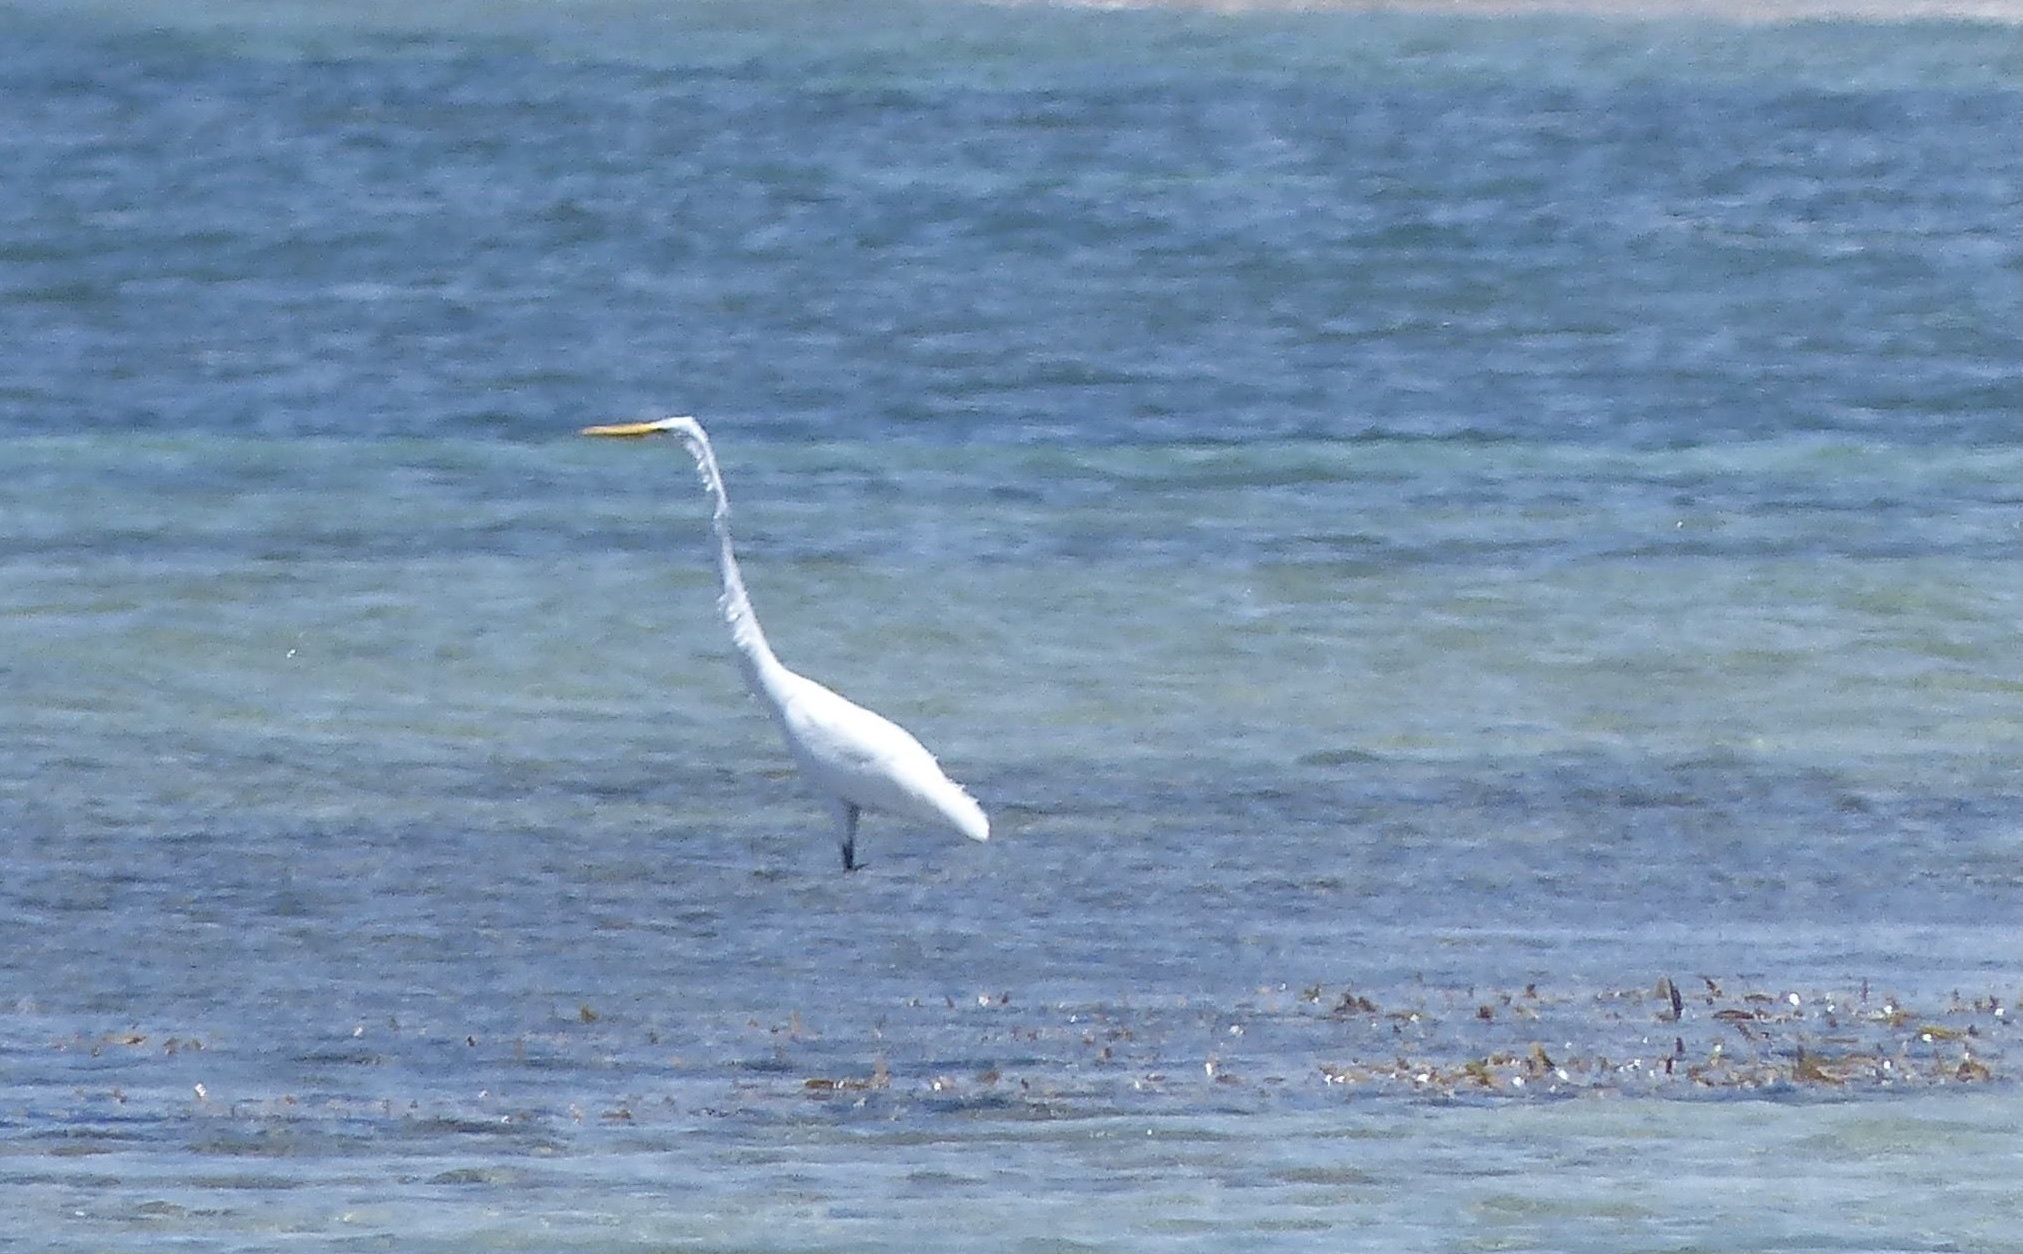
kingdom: Animalia
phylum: Chordata
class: Aves
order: Pelecaniformes
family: Ardeidae
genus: Ardea
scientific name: Ardea alba
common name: Great egret
